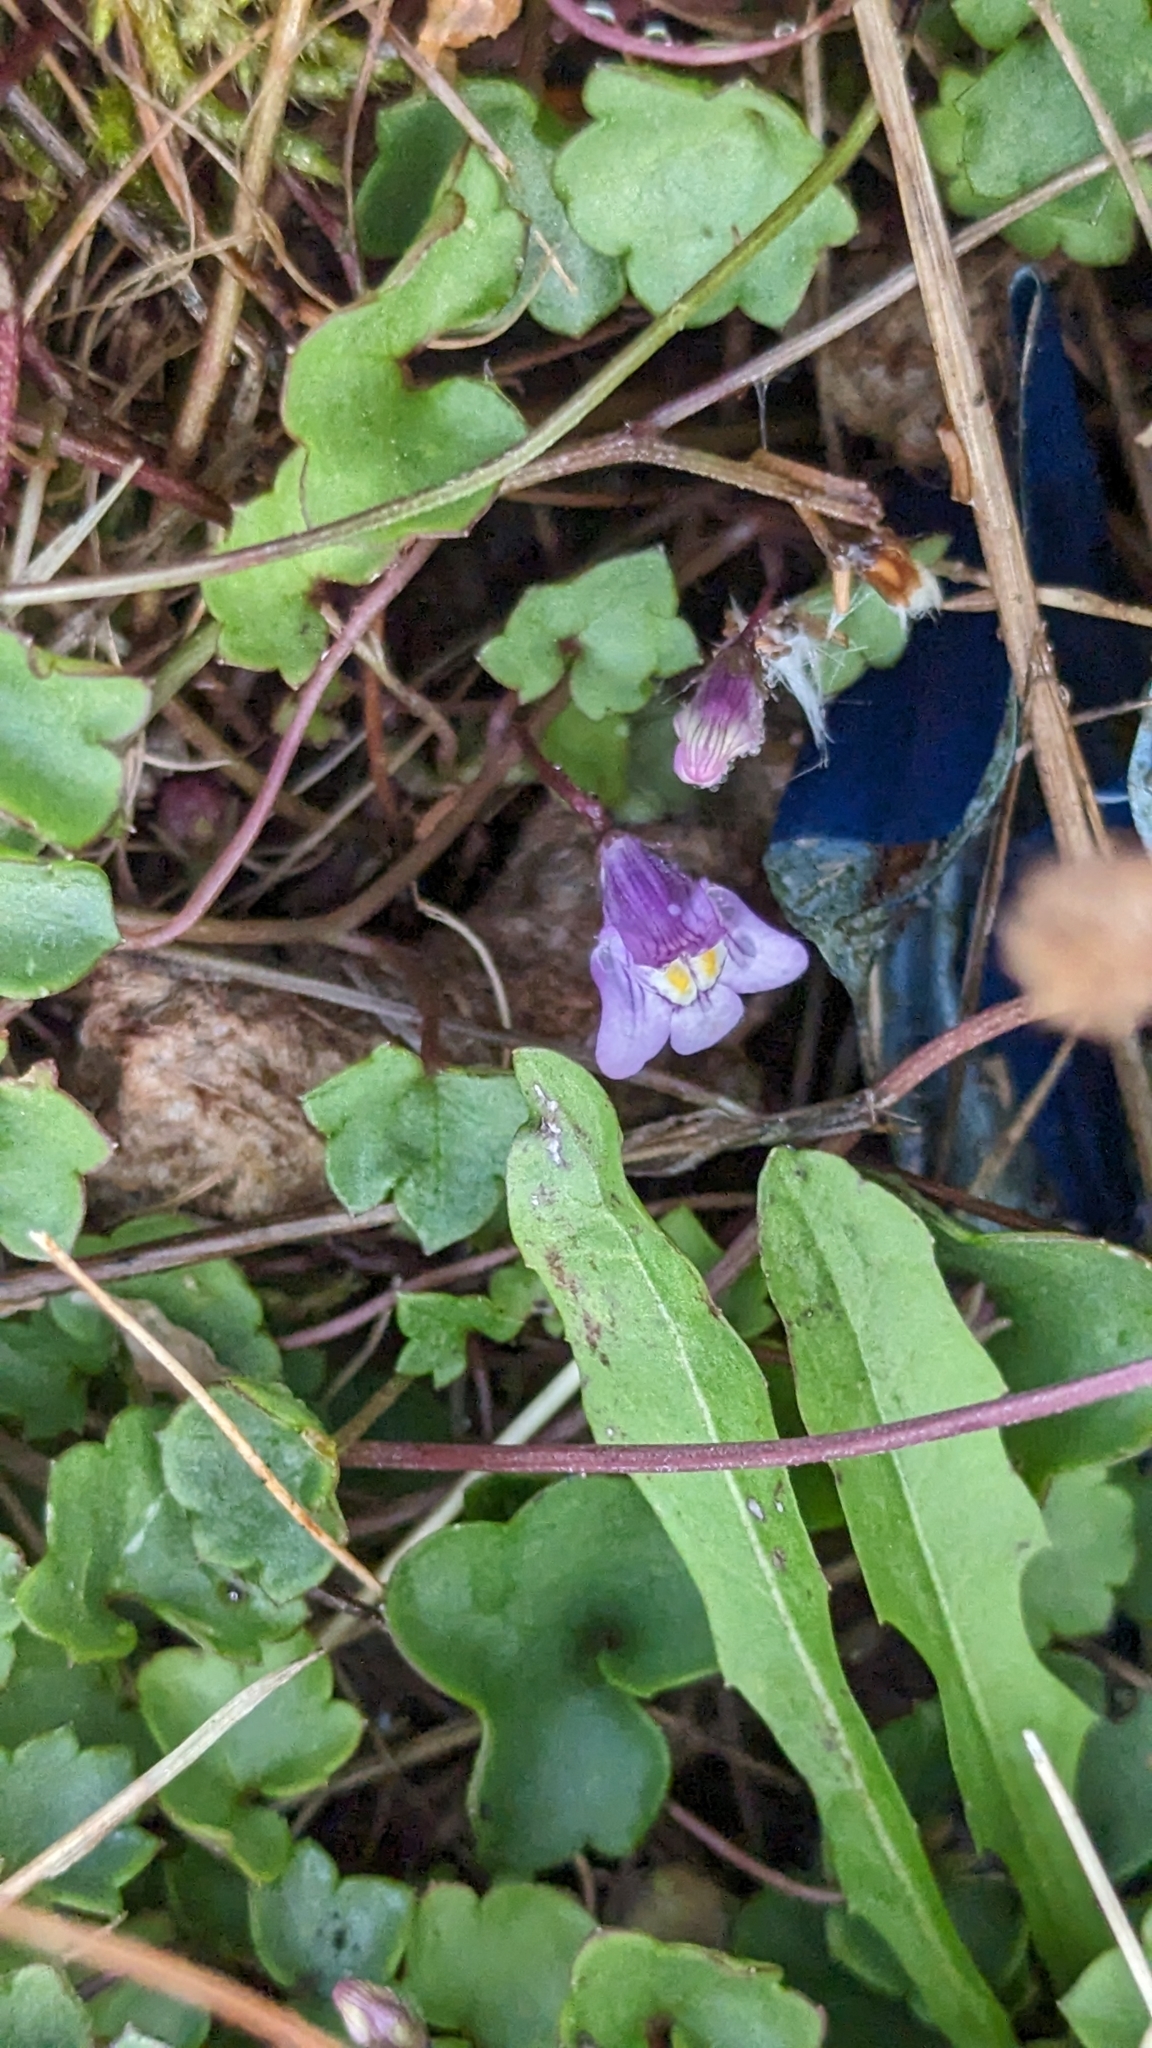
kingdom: Plantae
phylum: Tracheophyta
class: Magnoliopsida
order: Lamiales
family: Plantaginaceae
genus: Cymbalaria
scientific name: Cymbalaria muralis
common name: Ivy-leaved toadflax
